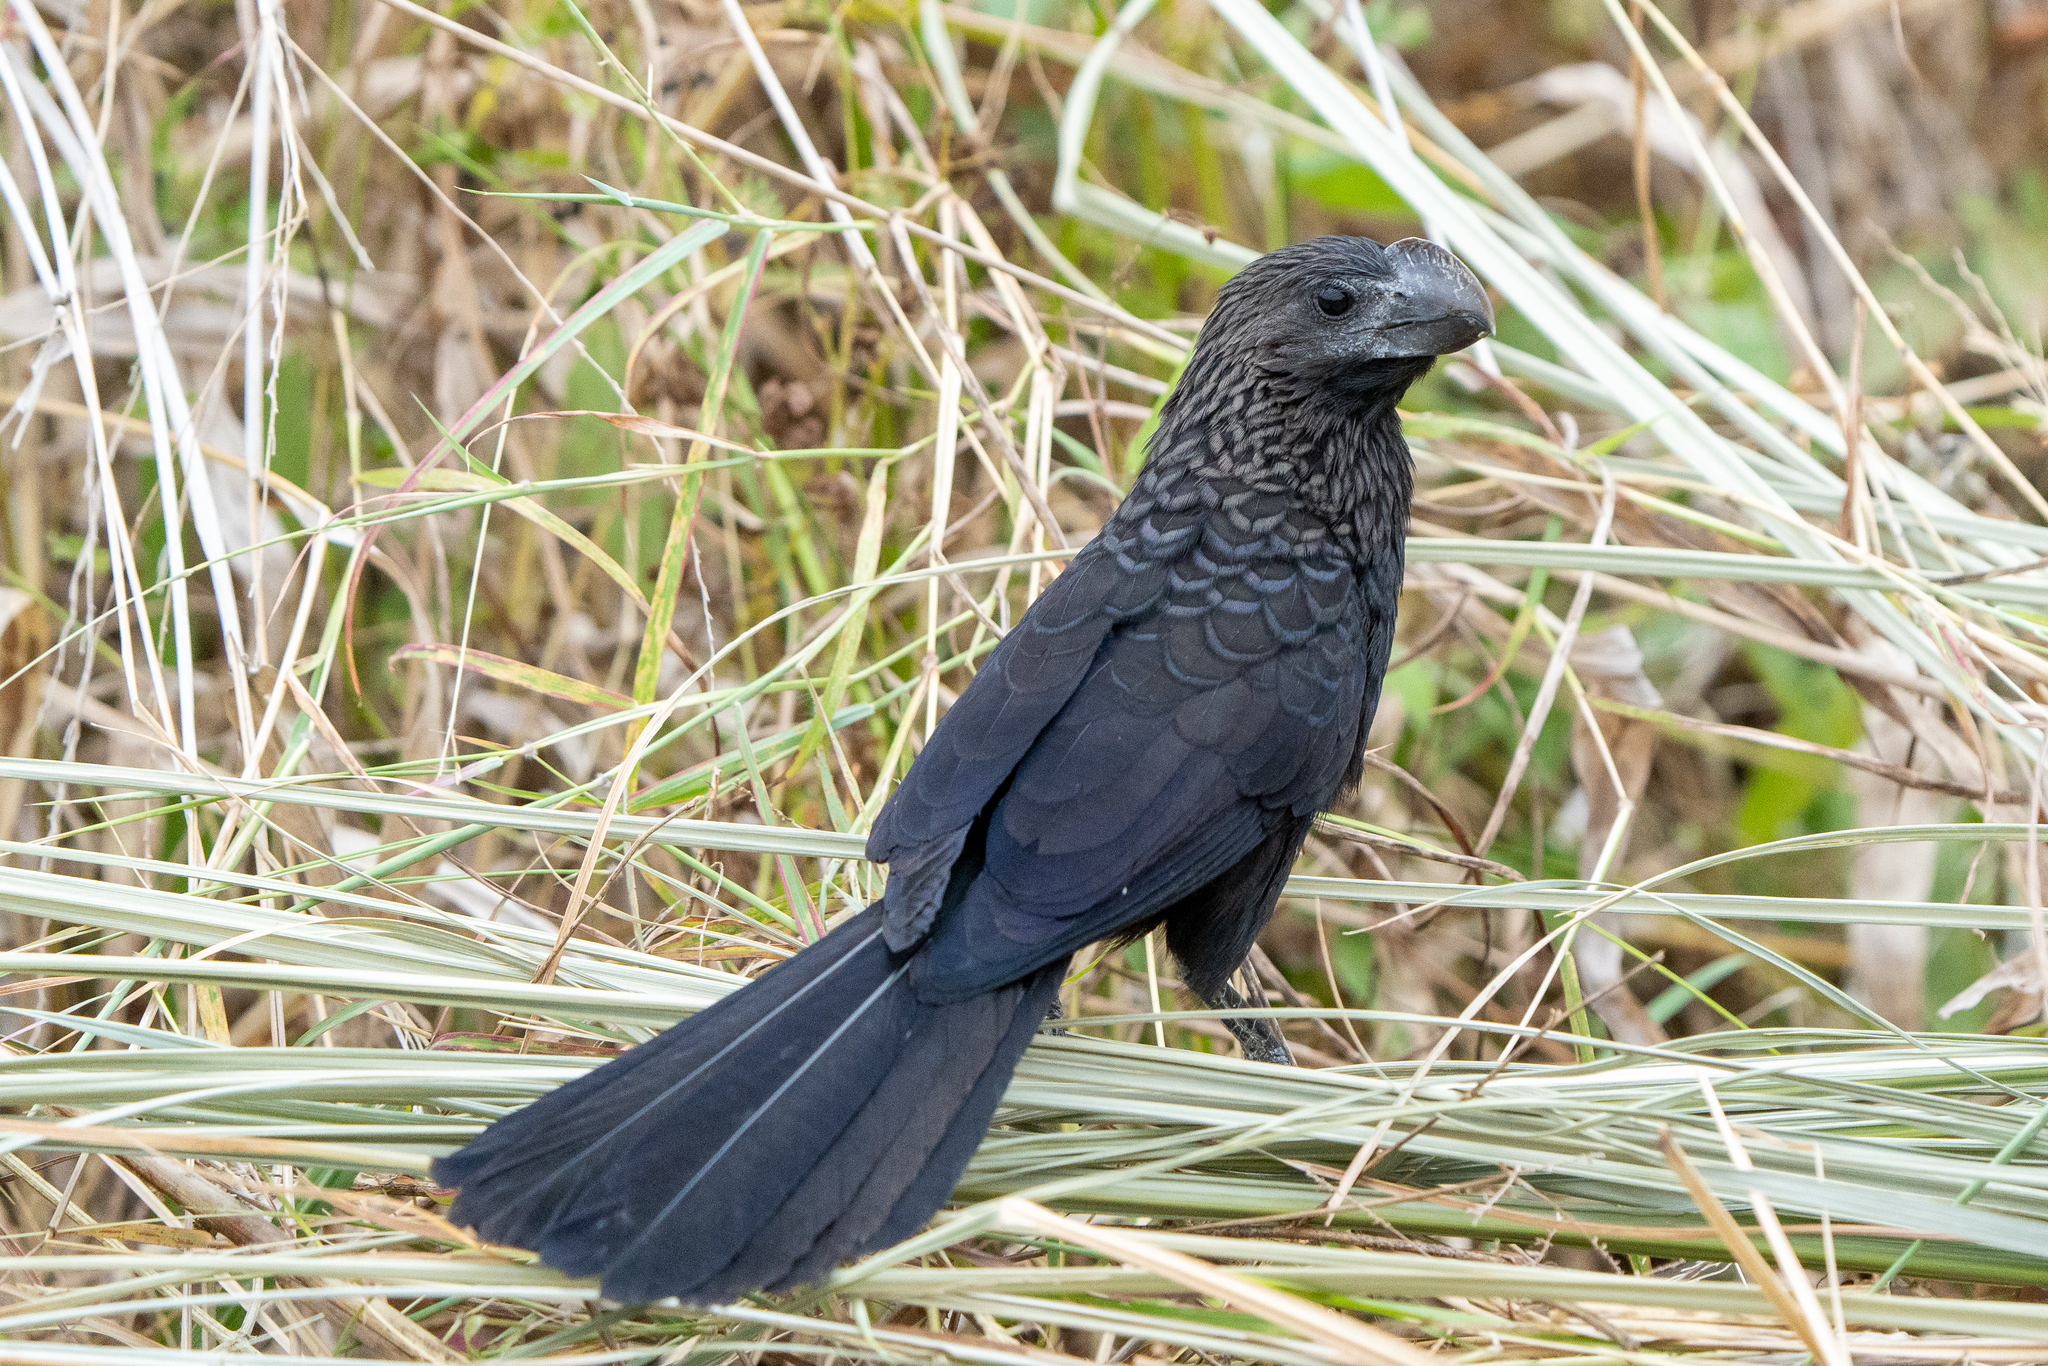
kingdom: Animalia
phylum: Chordata
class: Aves
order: Cuculiformes
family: Cuculidae
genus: Crotophaga
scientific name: Crotophaga ani
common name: Smooth-billed ani
